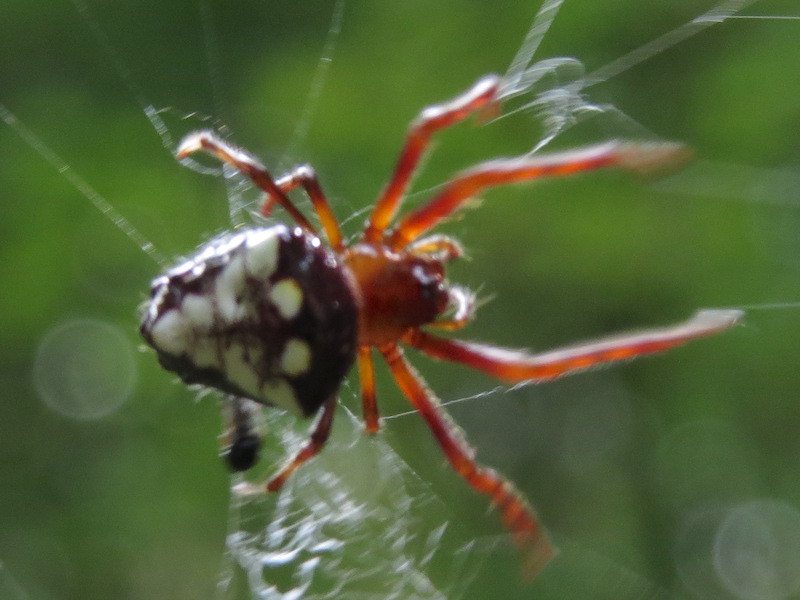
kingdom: Animalia
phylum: Arthropoda
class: Arachnida
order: Araneae
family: Araneidae
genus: Verrucosa
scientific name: Verrucosa arenata
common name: Orb weavers
